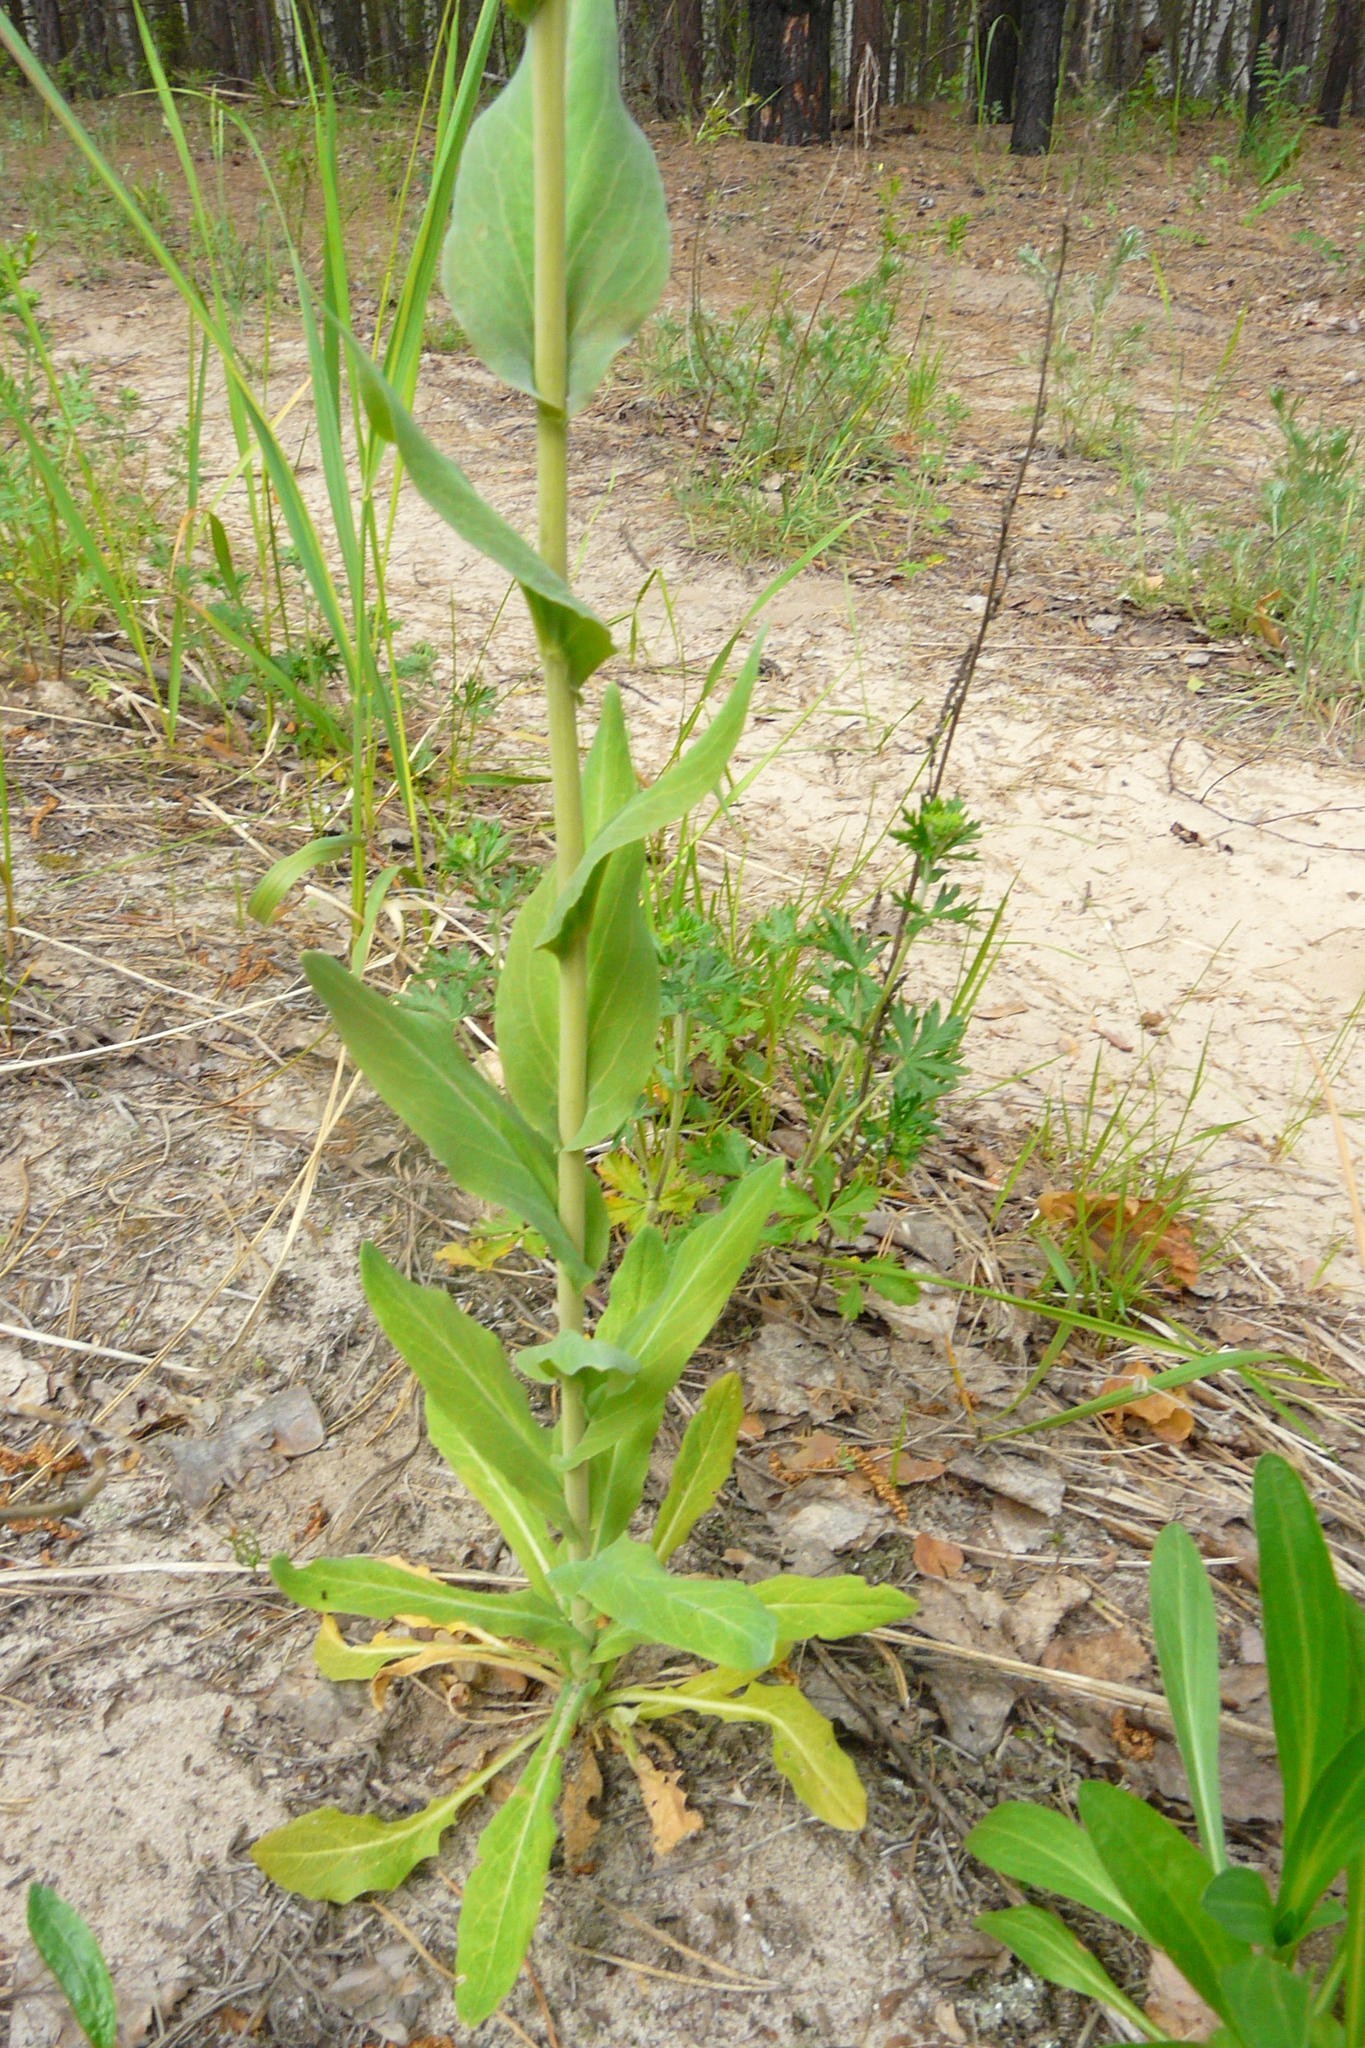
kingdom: Plantae
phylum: Tracheophyta
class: Magnoliopsida
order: Brassicales
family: Brassicaceae
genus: Turritis
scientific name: Turritis glabra
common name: Tower rockcress
